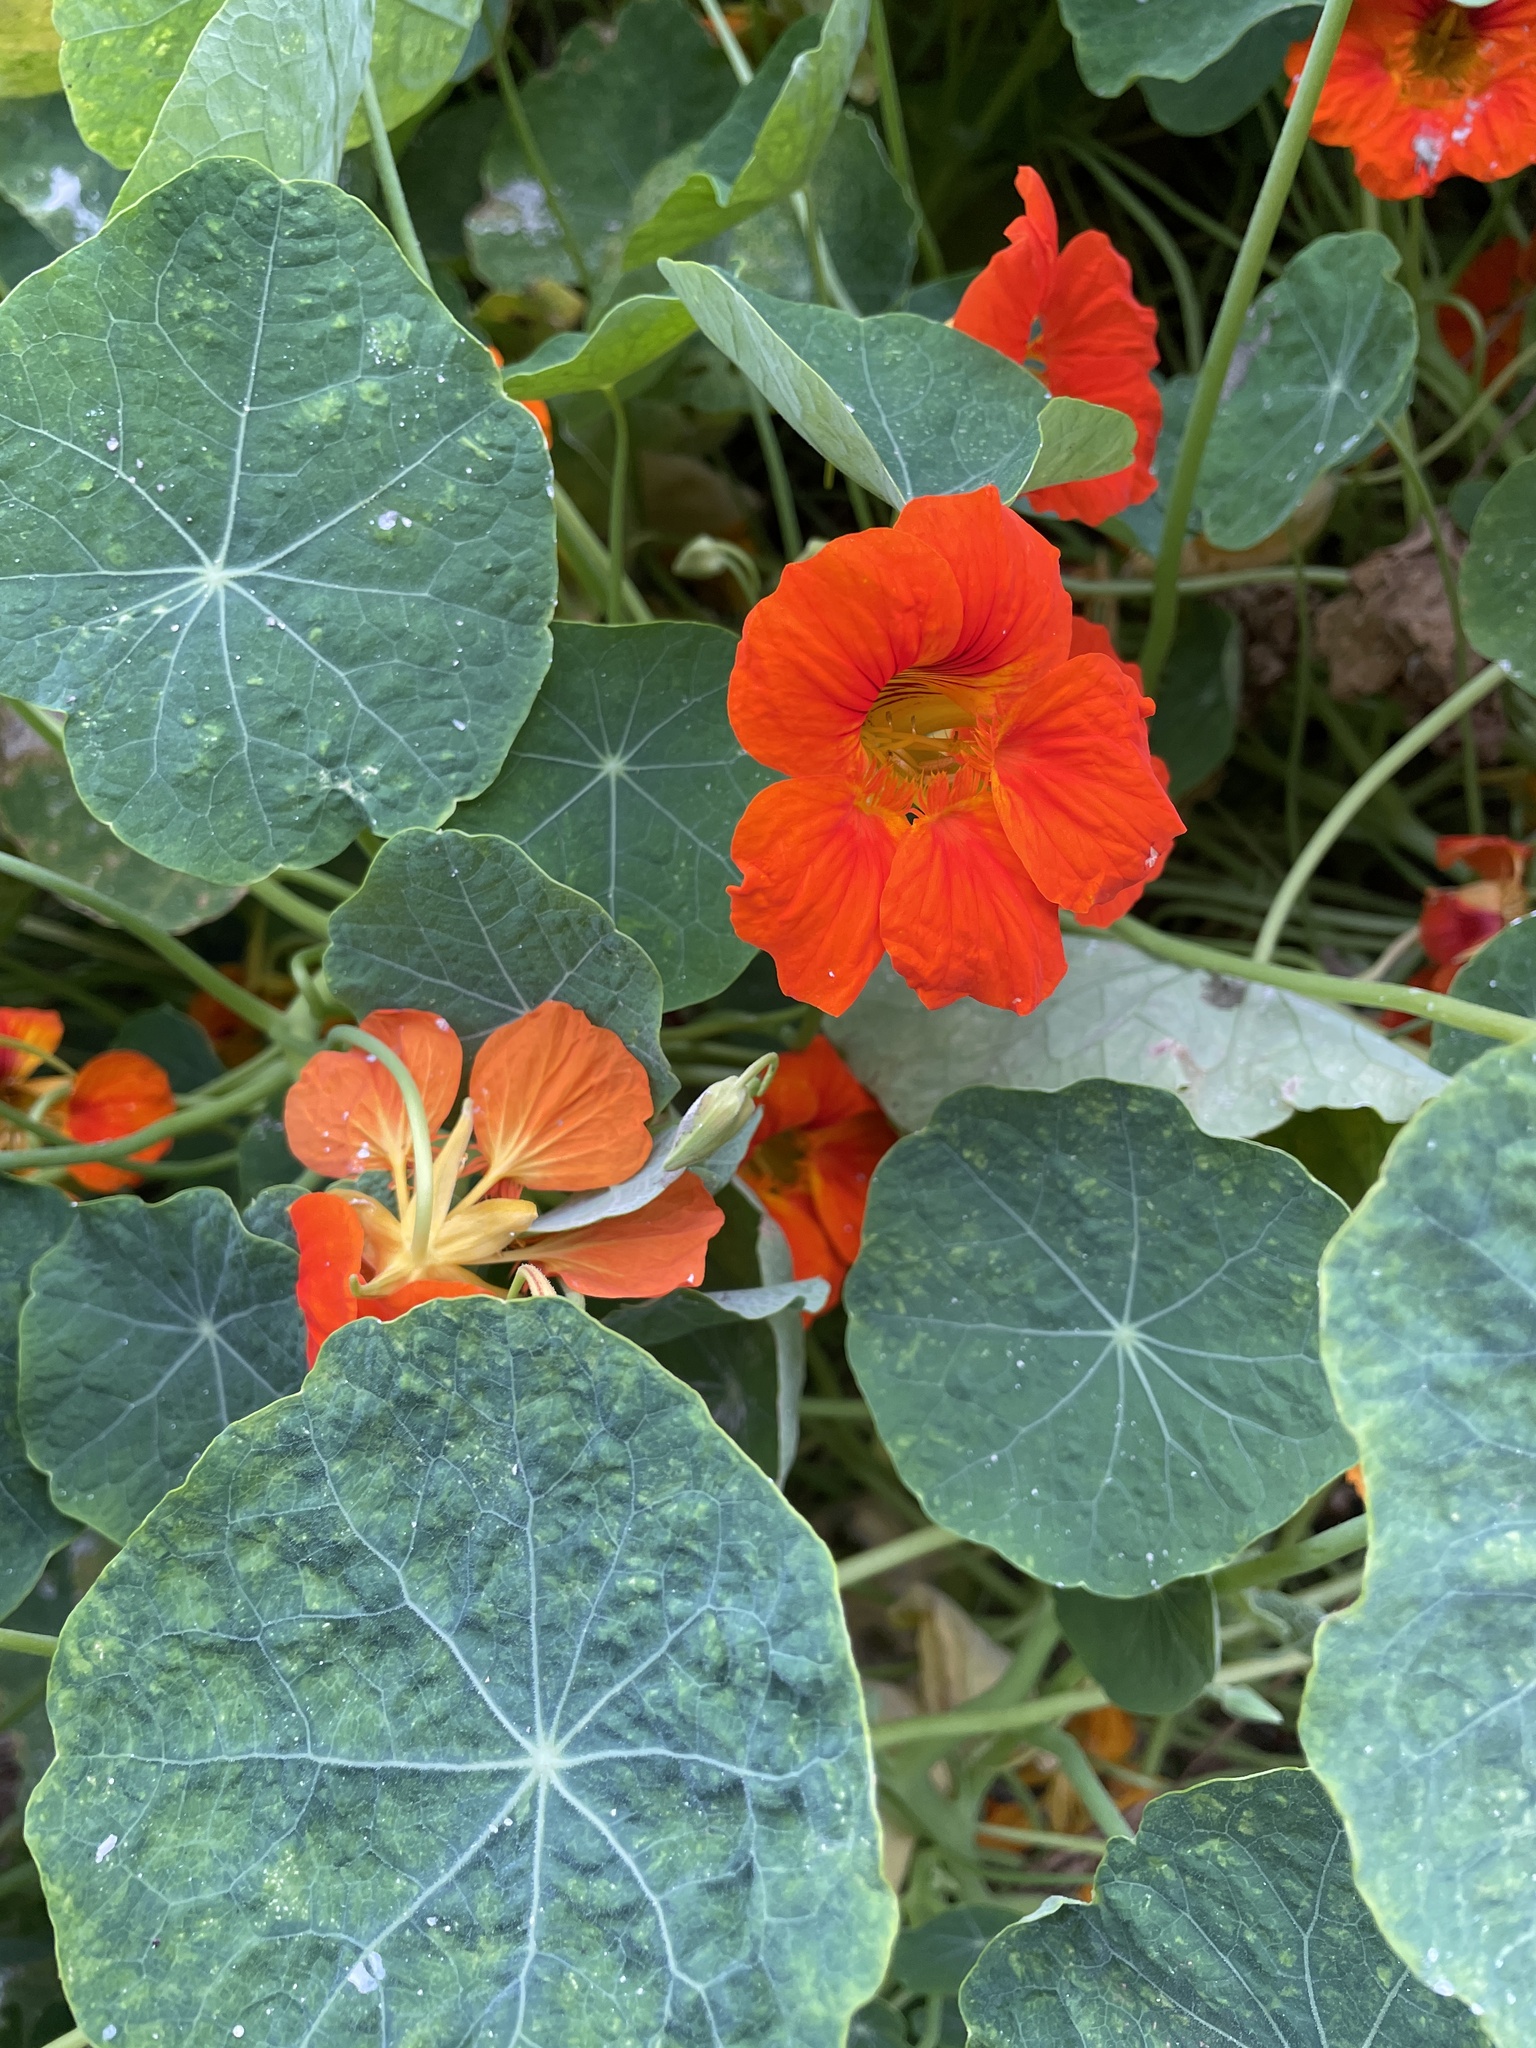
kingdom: Plantae
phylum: Tracheophyta
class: Magnoliopsida
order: Brassicales
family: Tropaeolaceae
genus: Tropaeolum
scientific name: Tropaeolum majus
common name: Nasturtium
